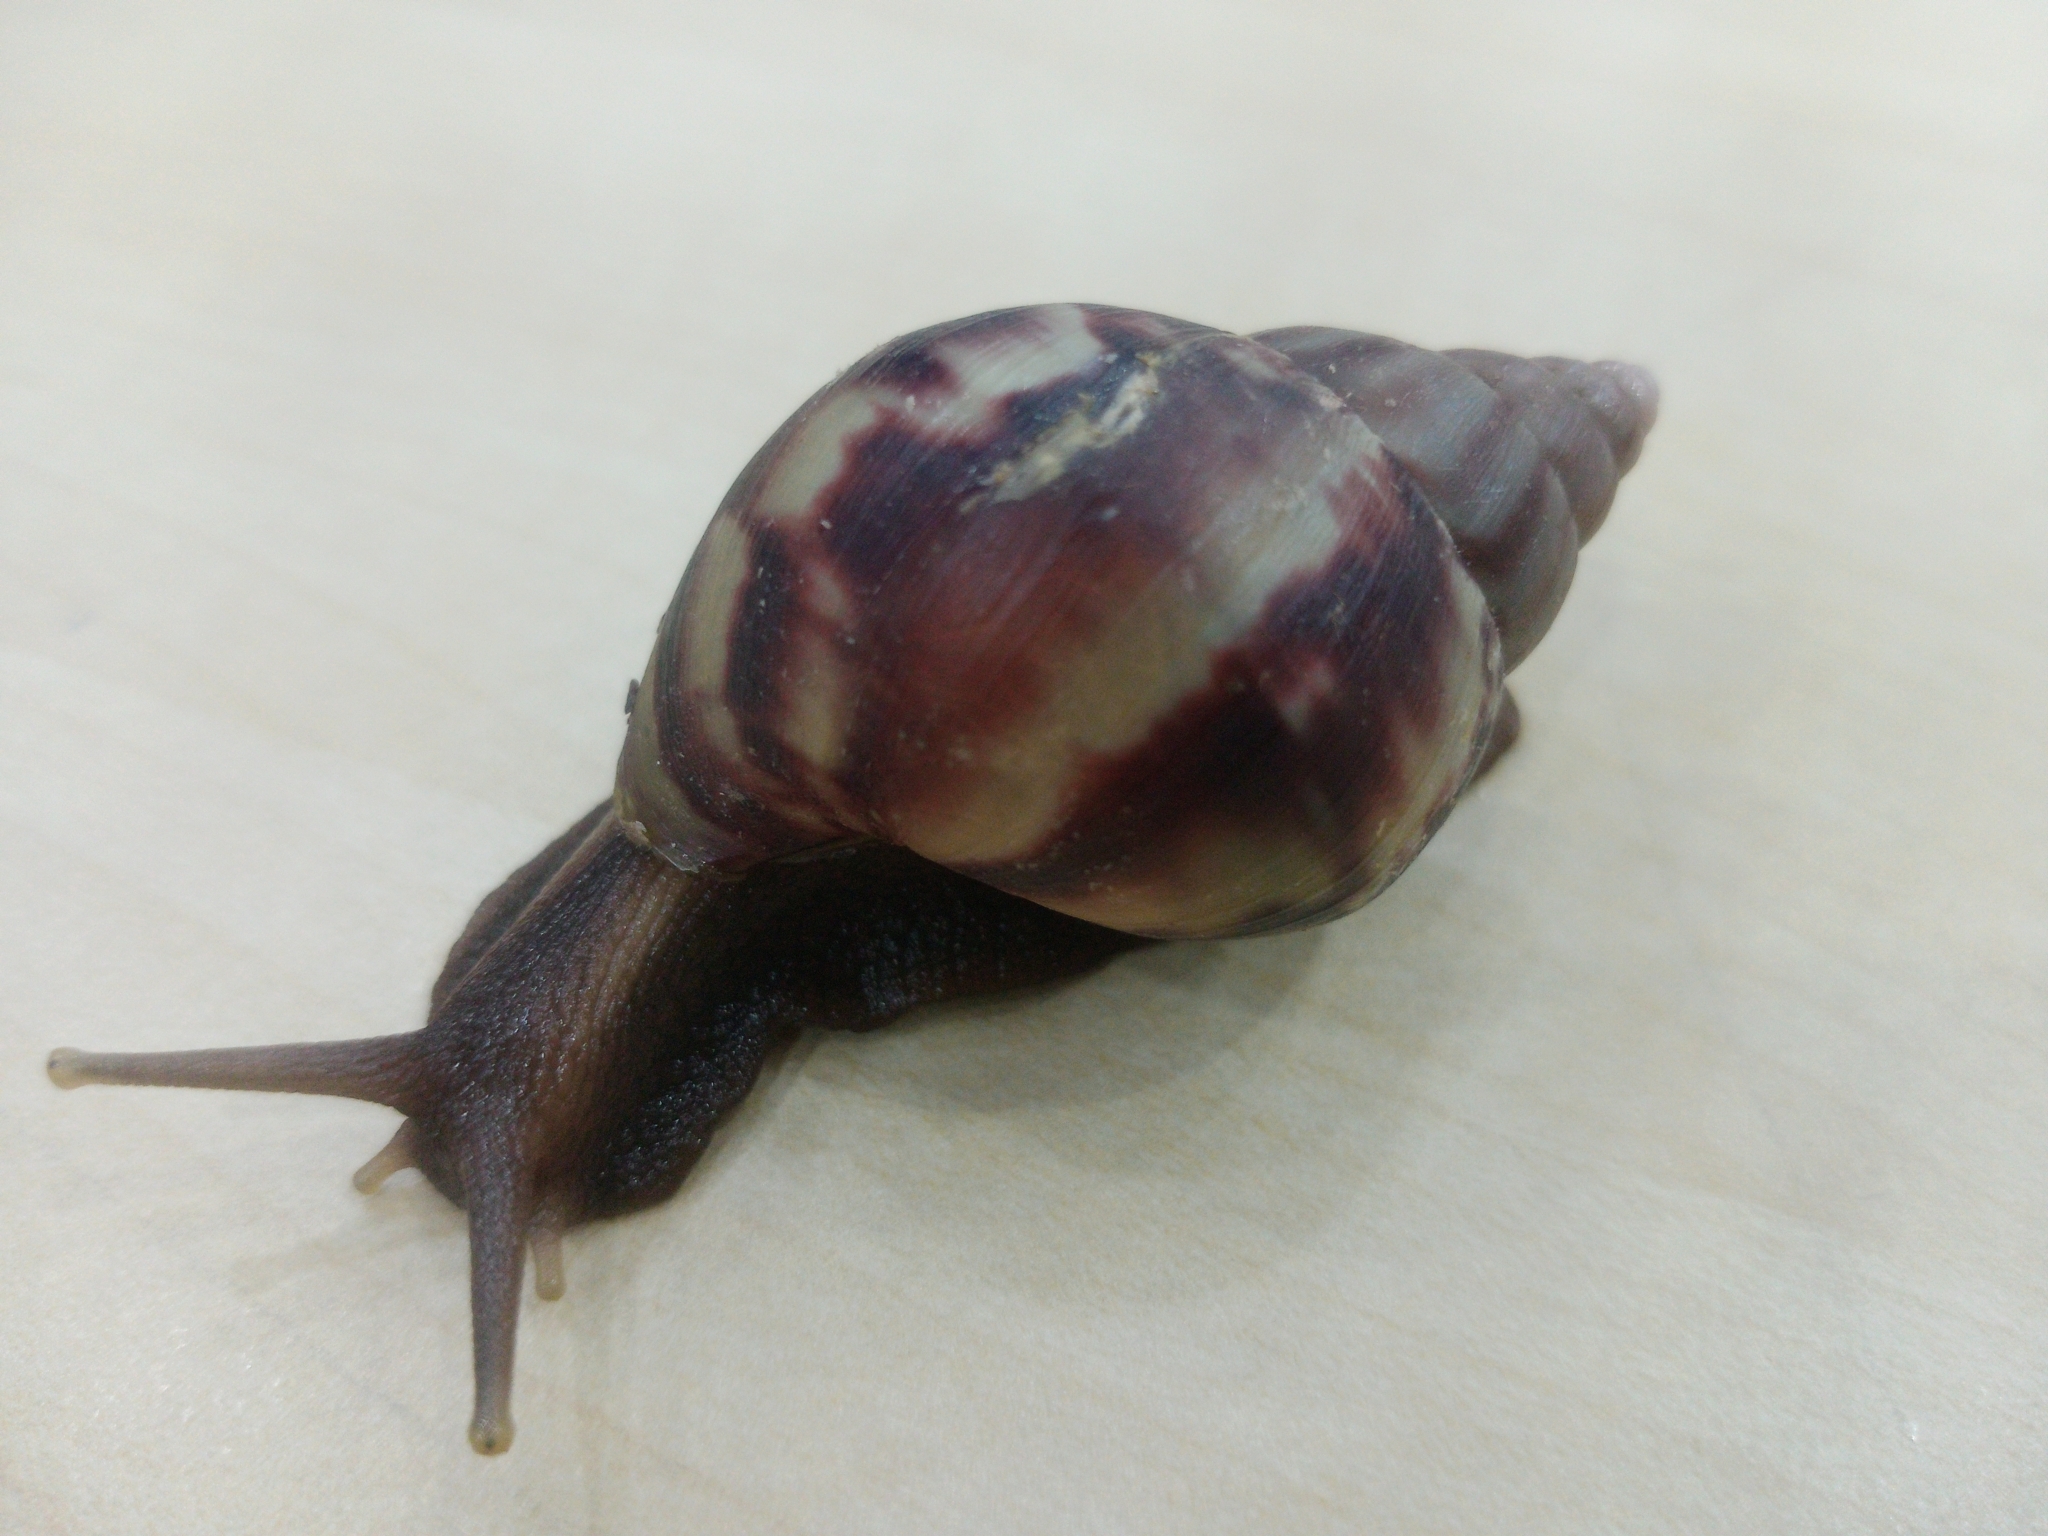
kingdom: Animalia
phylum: Mollusca
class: Gastropoda
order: Stylommatophora
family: Achatinidae
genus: Lissachatina
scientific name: Lissachatina fulica
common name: Giant african snail
